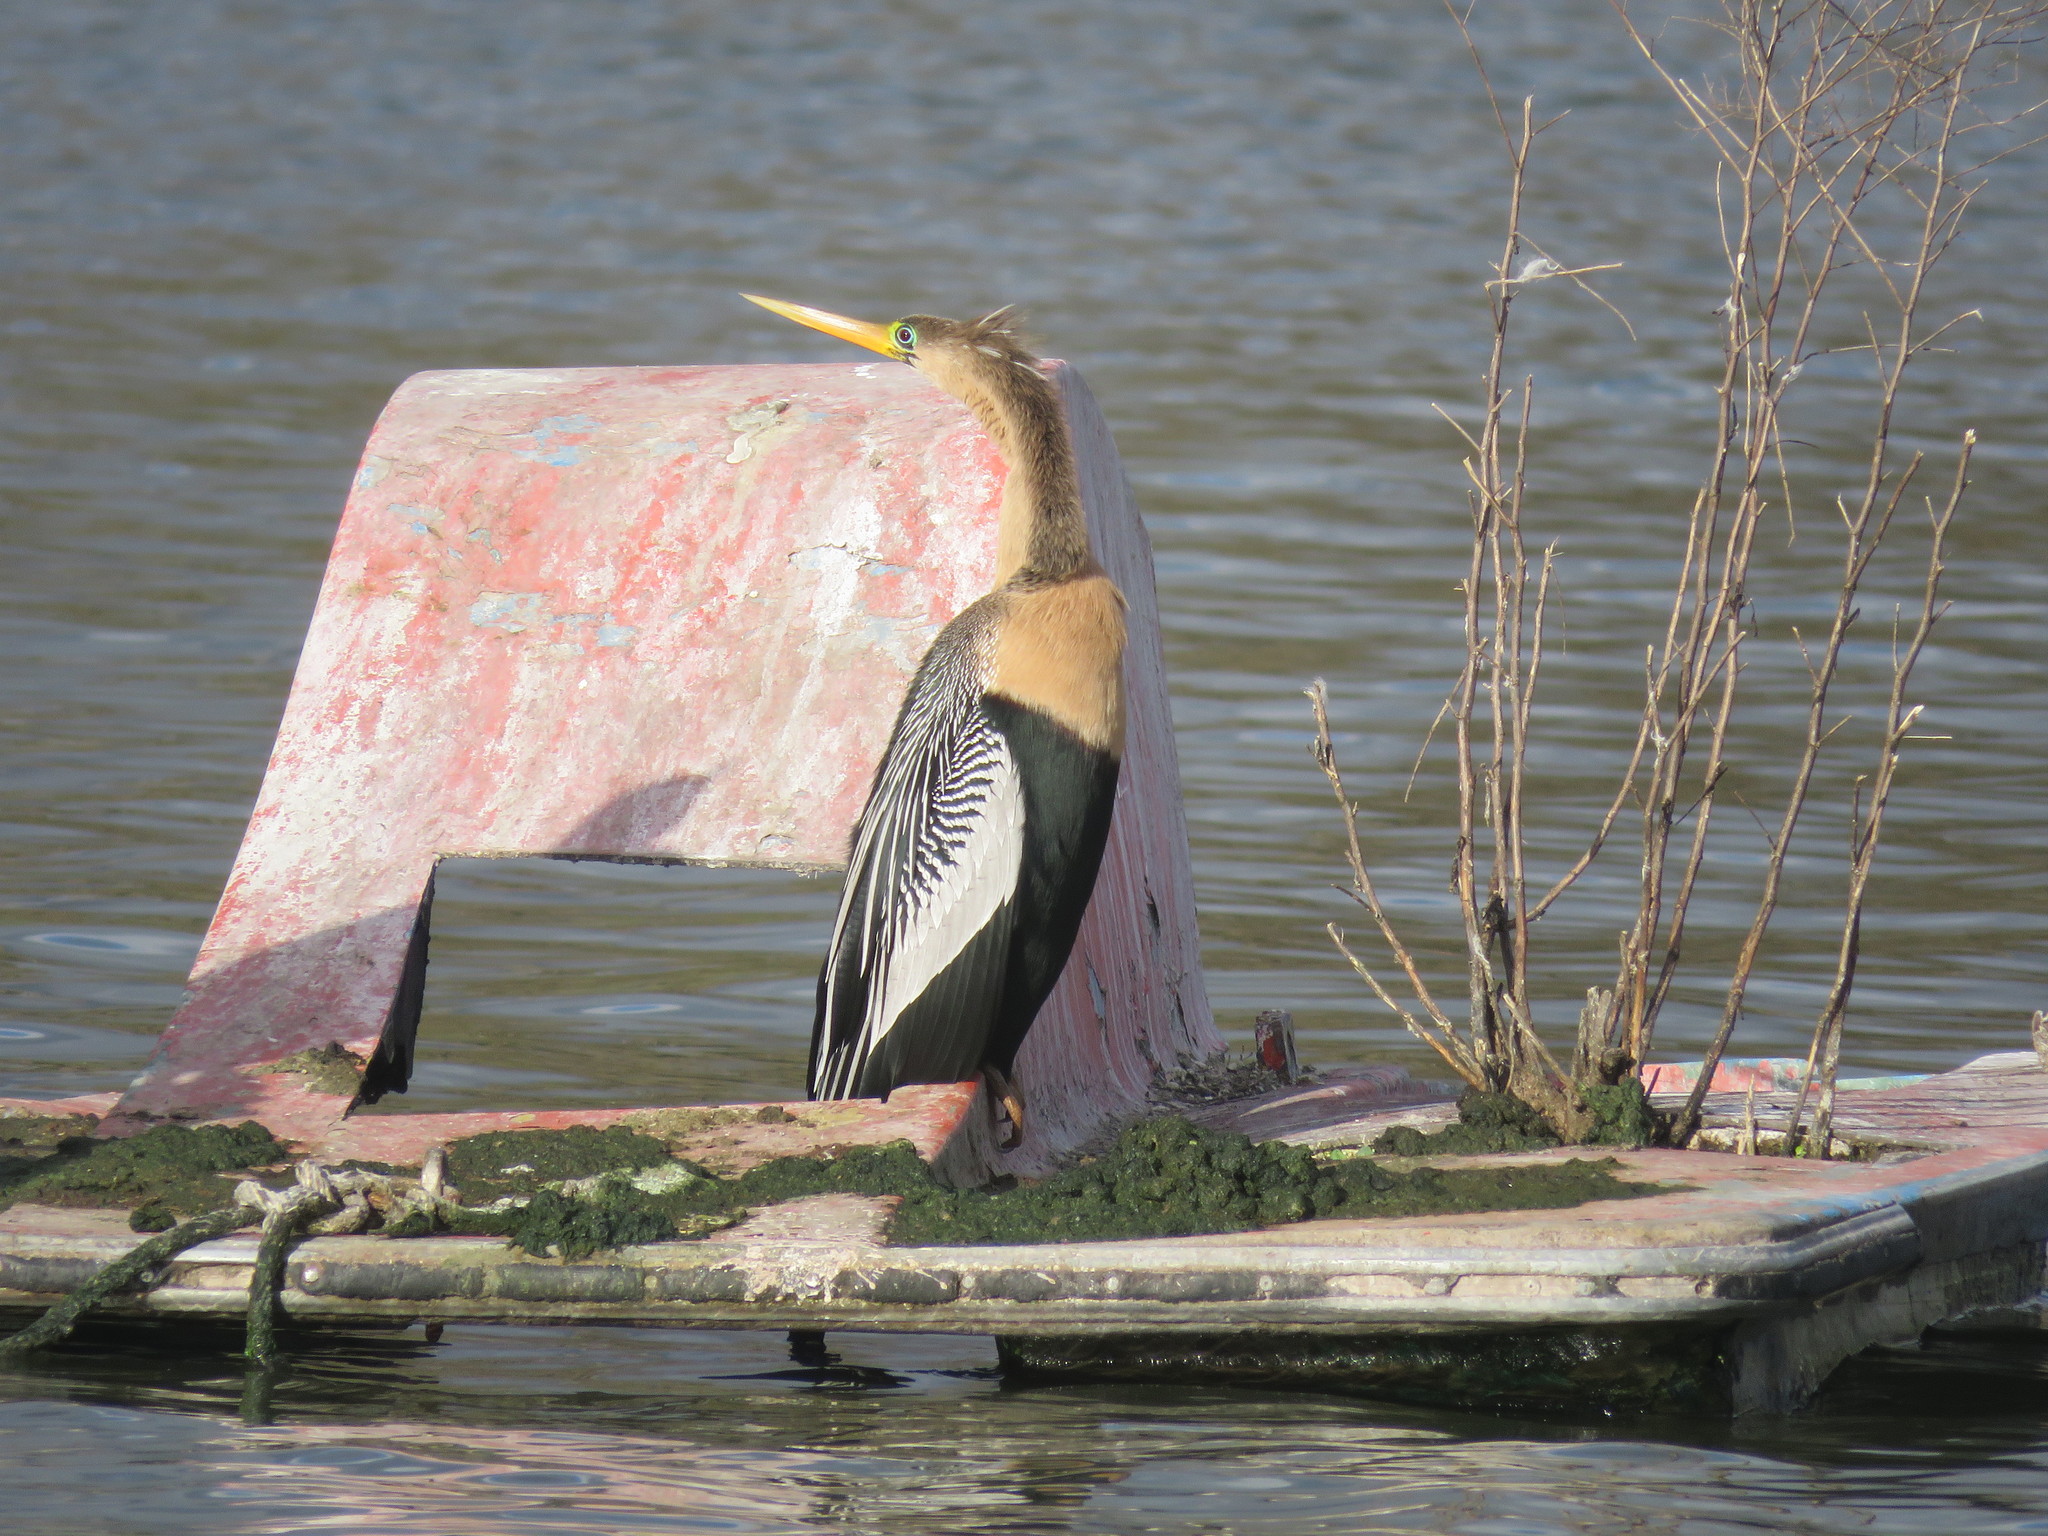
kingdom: Animalia
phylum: Chordata
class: Aves
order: Suliformes
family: Anhingidae
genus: Anhinga
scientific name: Anhinga anhinga
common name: Anhinga
